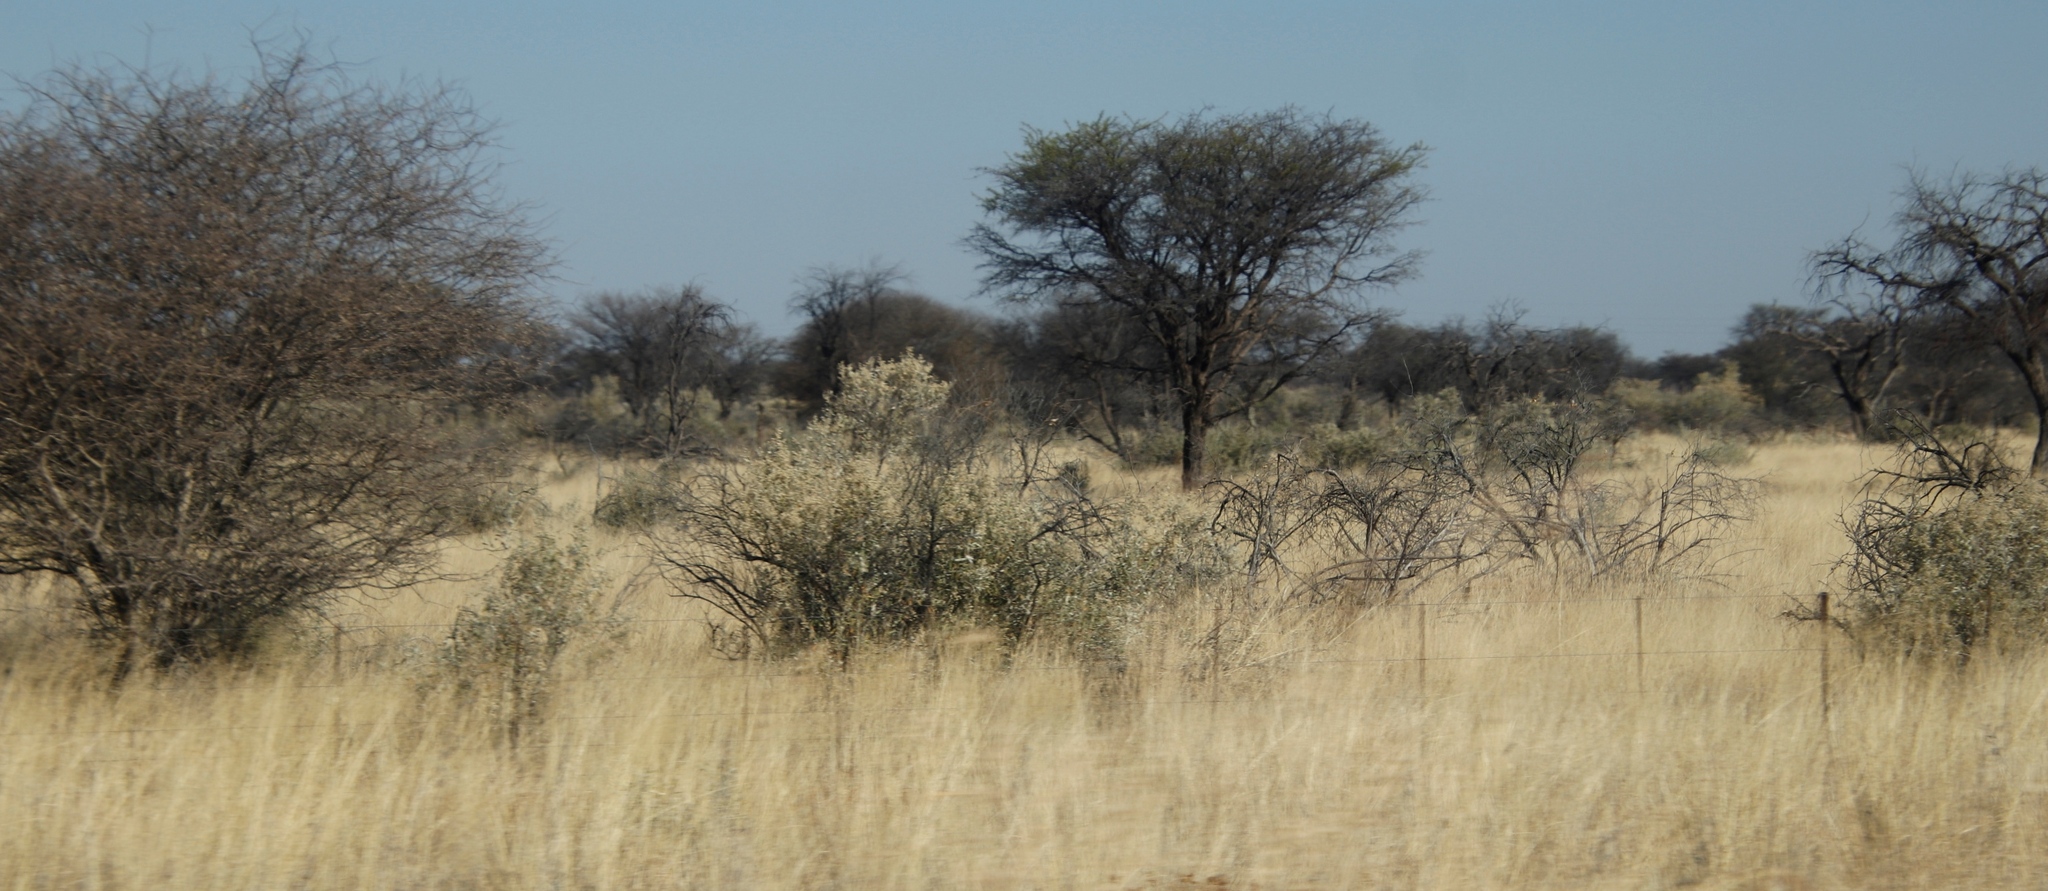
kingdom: Plantae
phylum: Tracheophyta
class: Magnoliopsida
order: Fabales
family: Fabaceae
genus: Senegalia
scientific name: Senegalia mellifera
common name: Hookthorn
